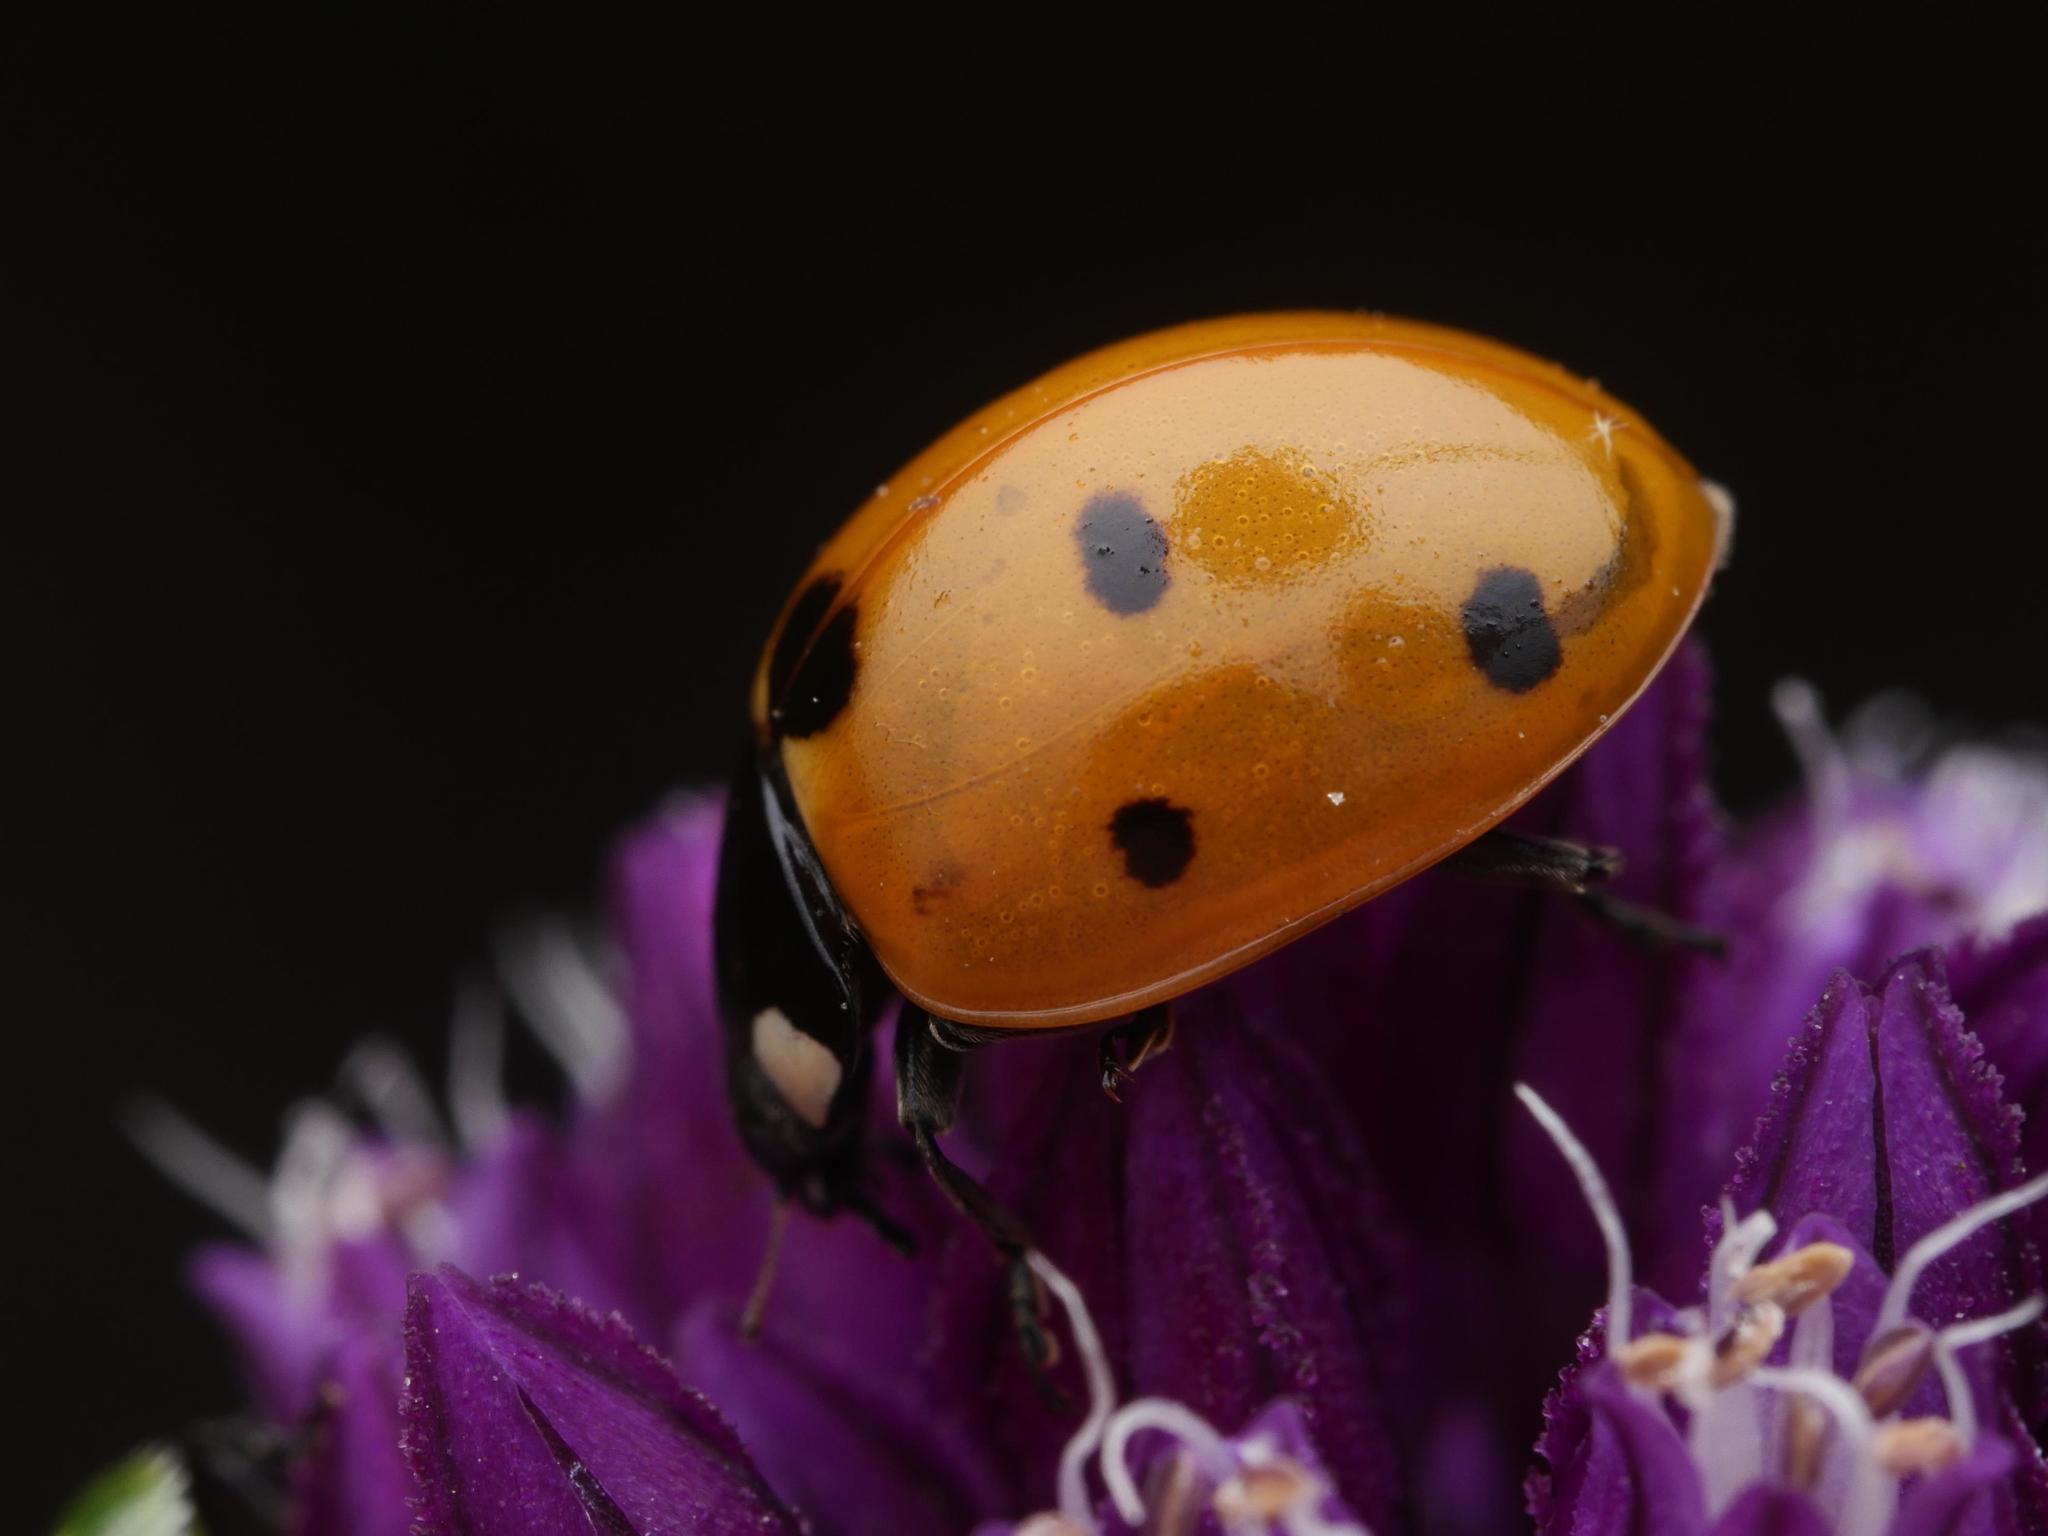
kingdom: Animalia
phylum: Arthropoda
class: Insecta
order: Coleoptera
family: Coccinellidae
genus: Coccinella
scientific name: Coccinella septempunctata
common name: Sevenspotted lady beetle
